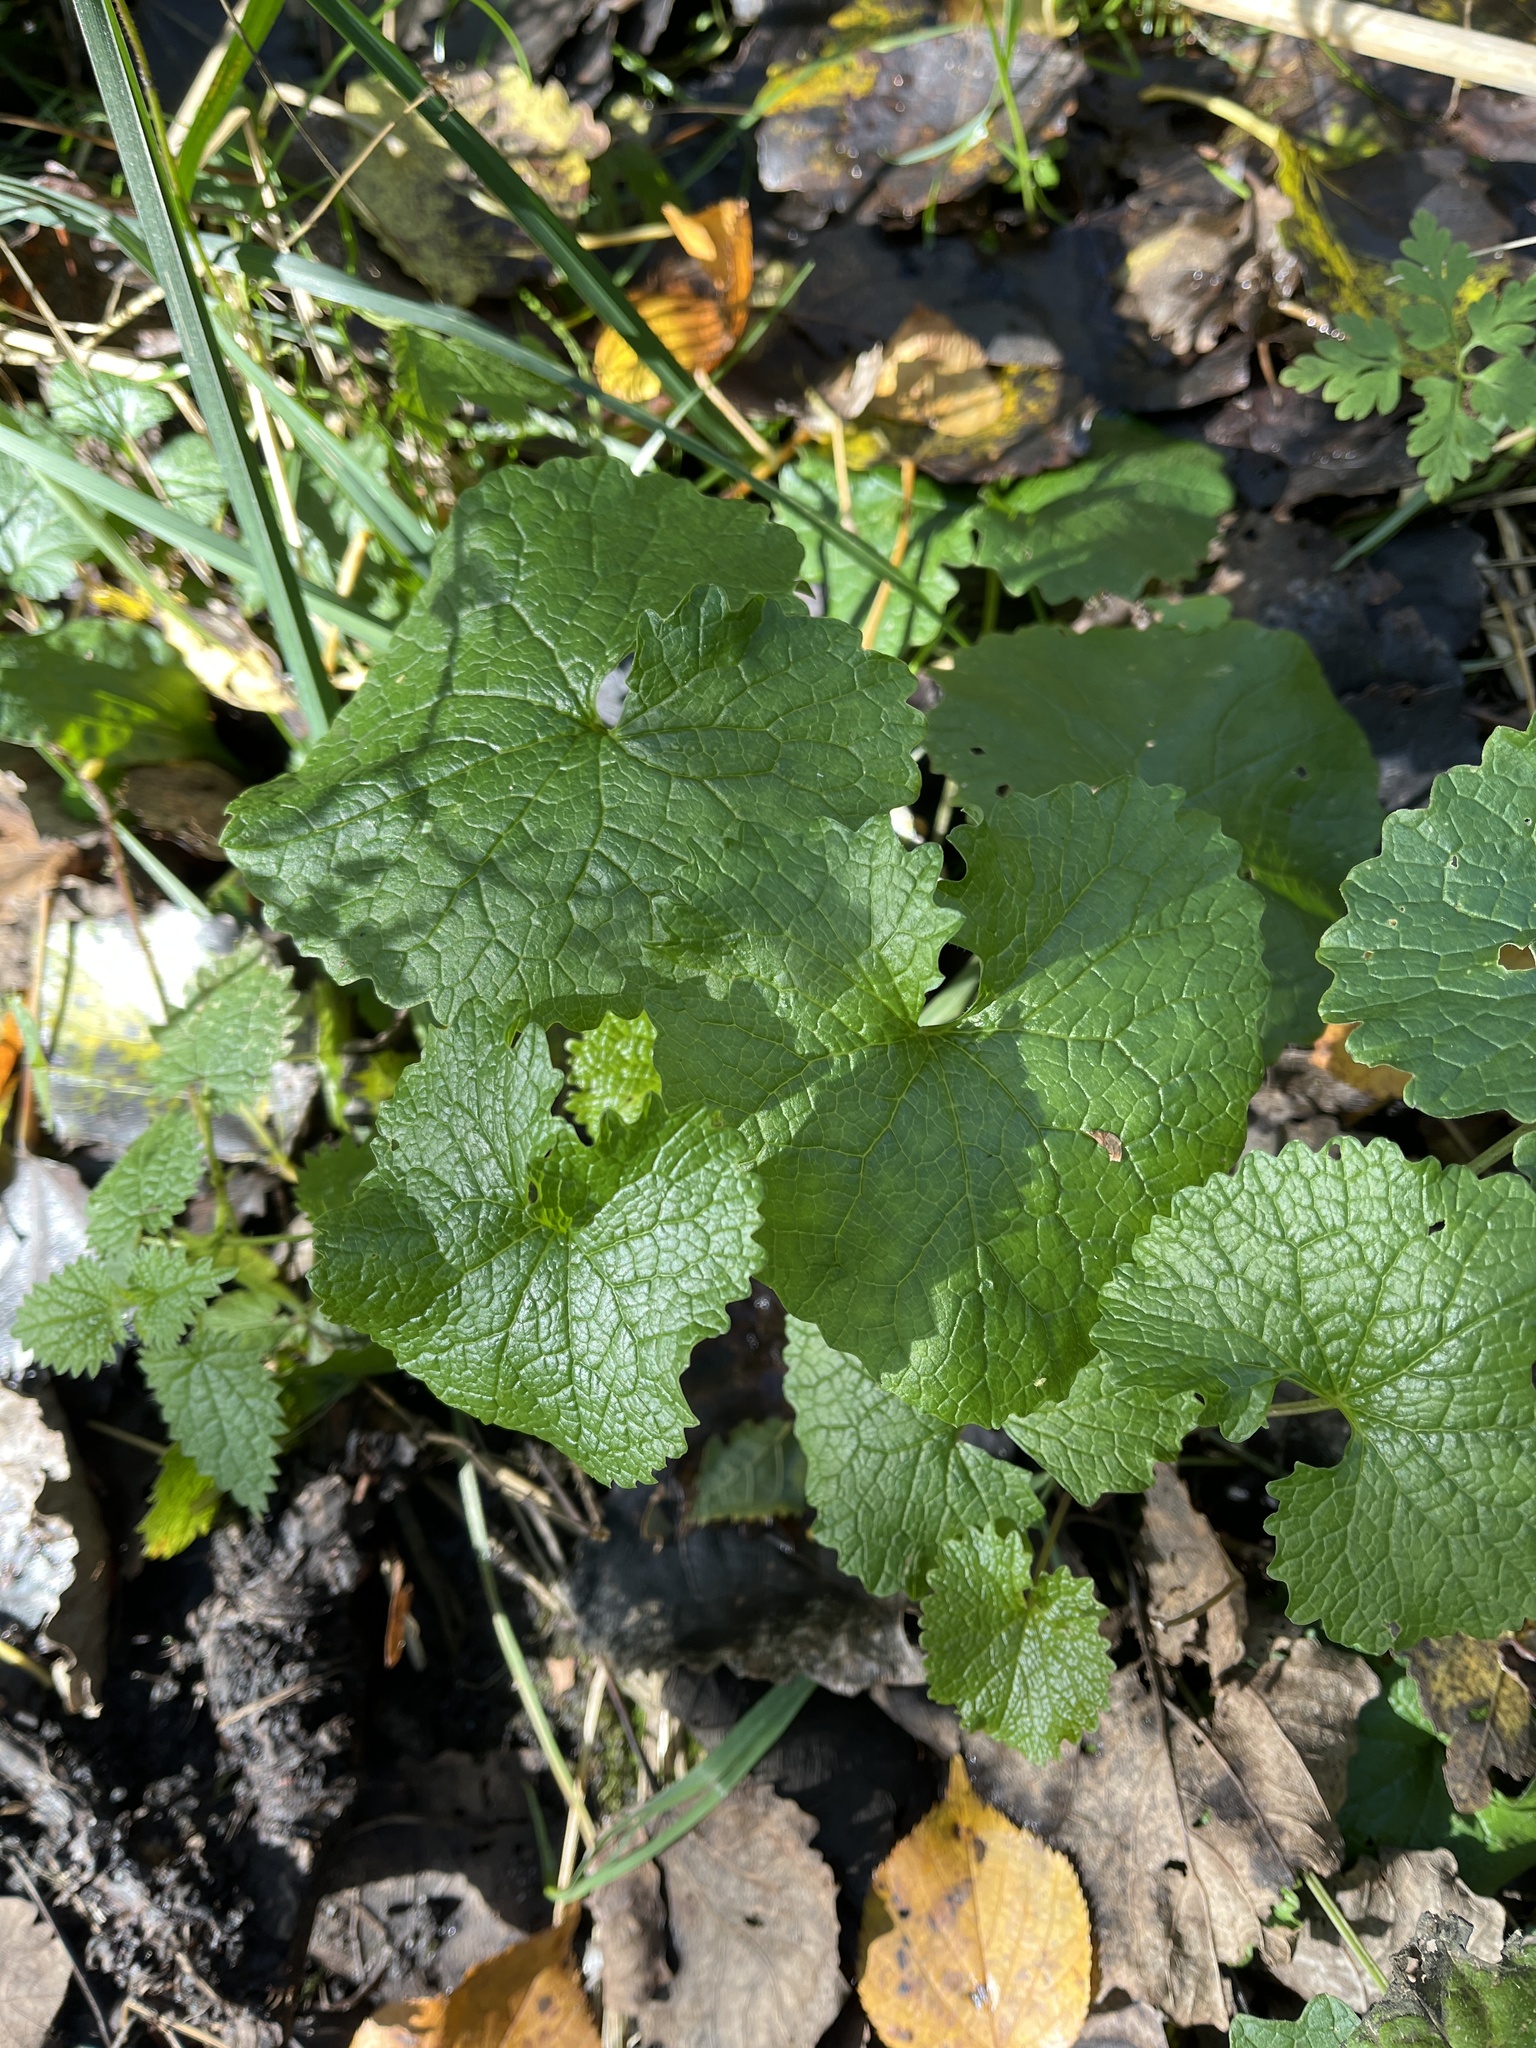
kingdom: Plantae
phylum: Tracheophyta
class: Magnoliopsida
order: Brassicales
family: Brassicaceae
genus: Alliaria
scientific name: Alliaria petiolata
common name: Garlic mustard
